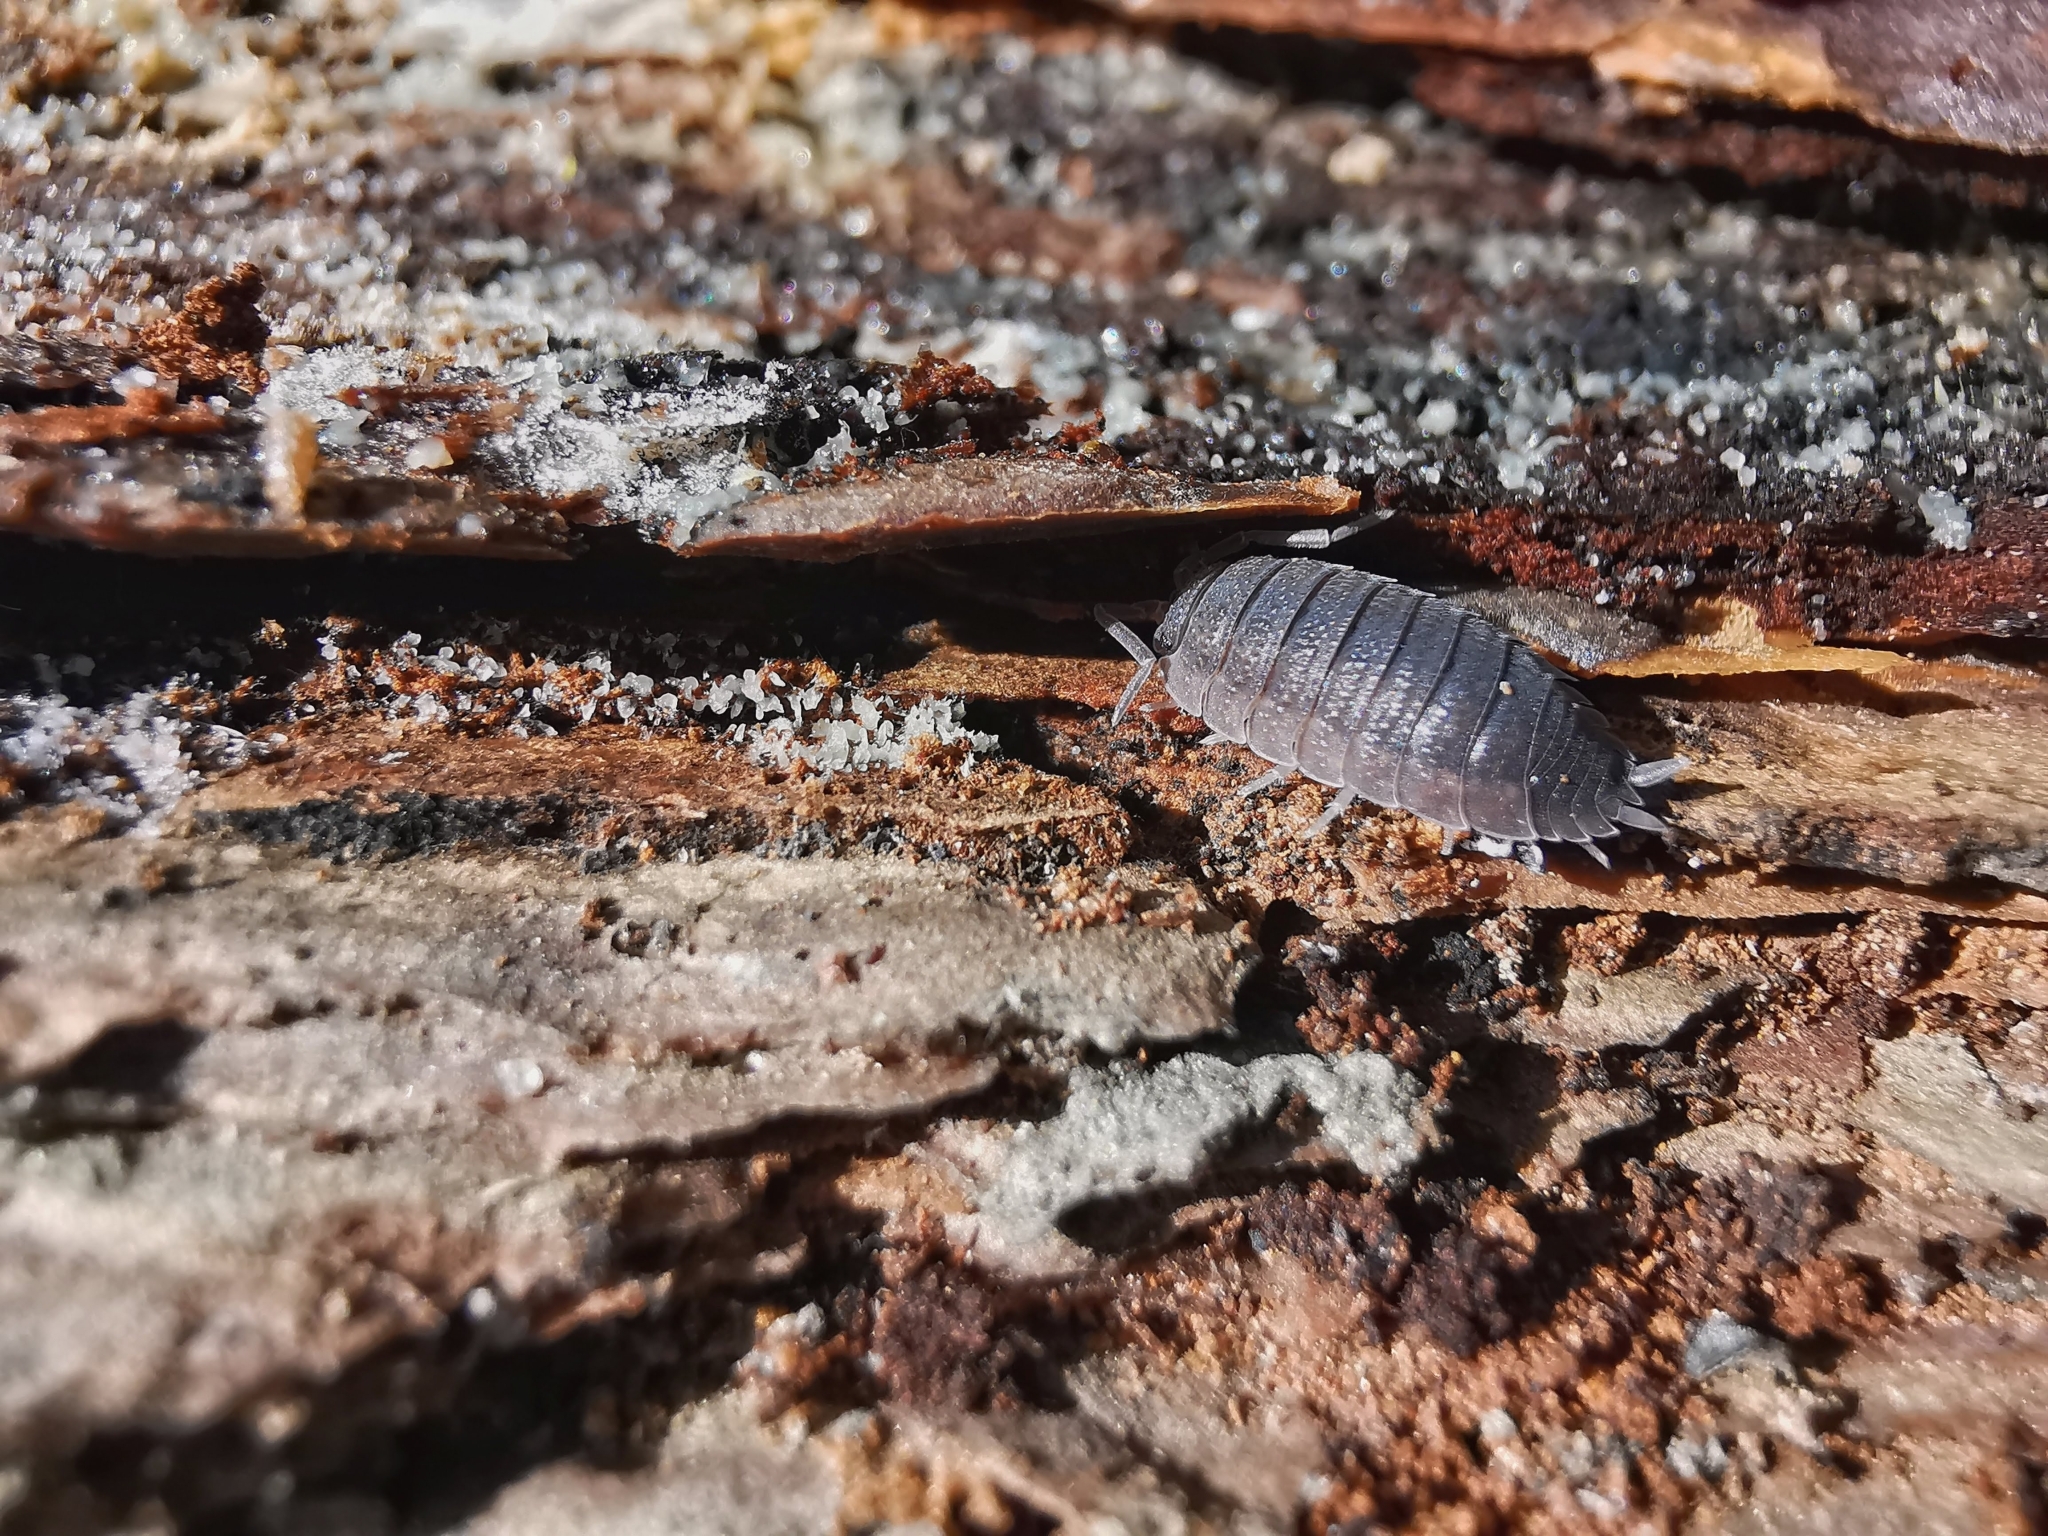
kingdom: Animalia
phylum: Arthropoda
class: Malacostraca
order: Isopoda
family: Porcellionidae
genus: Porcellio
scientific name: Porcellio scaber
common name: Common rough woodlouse
